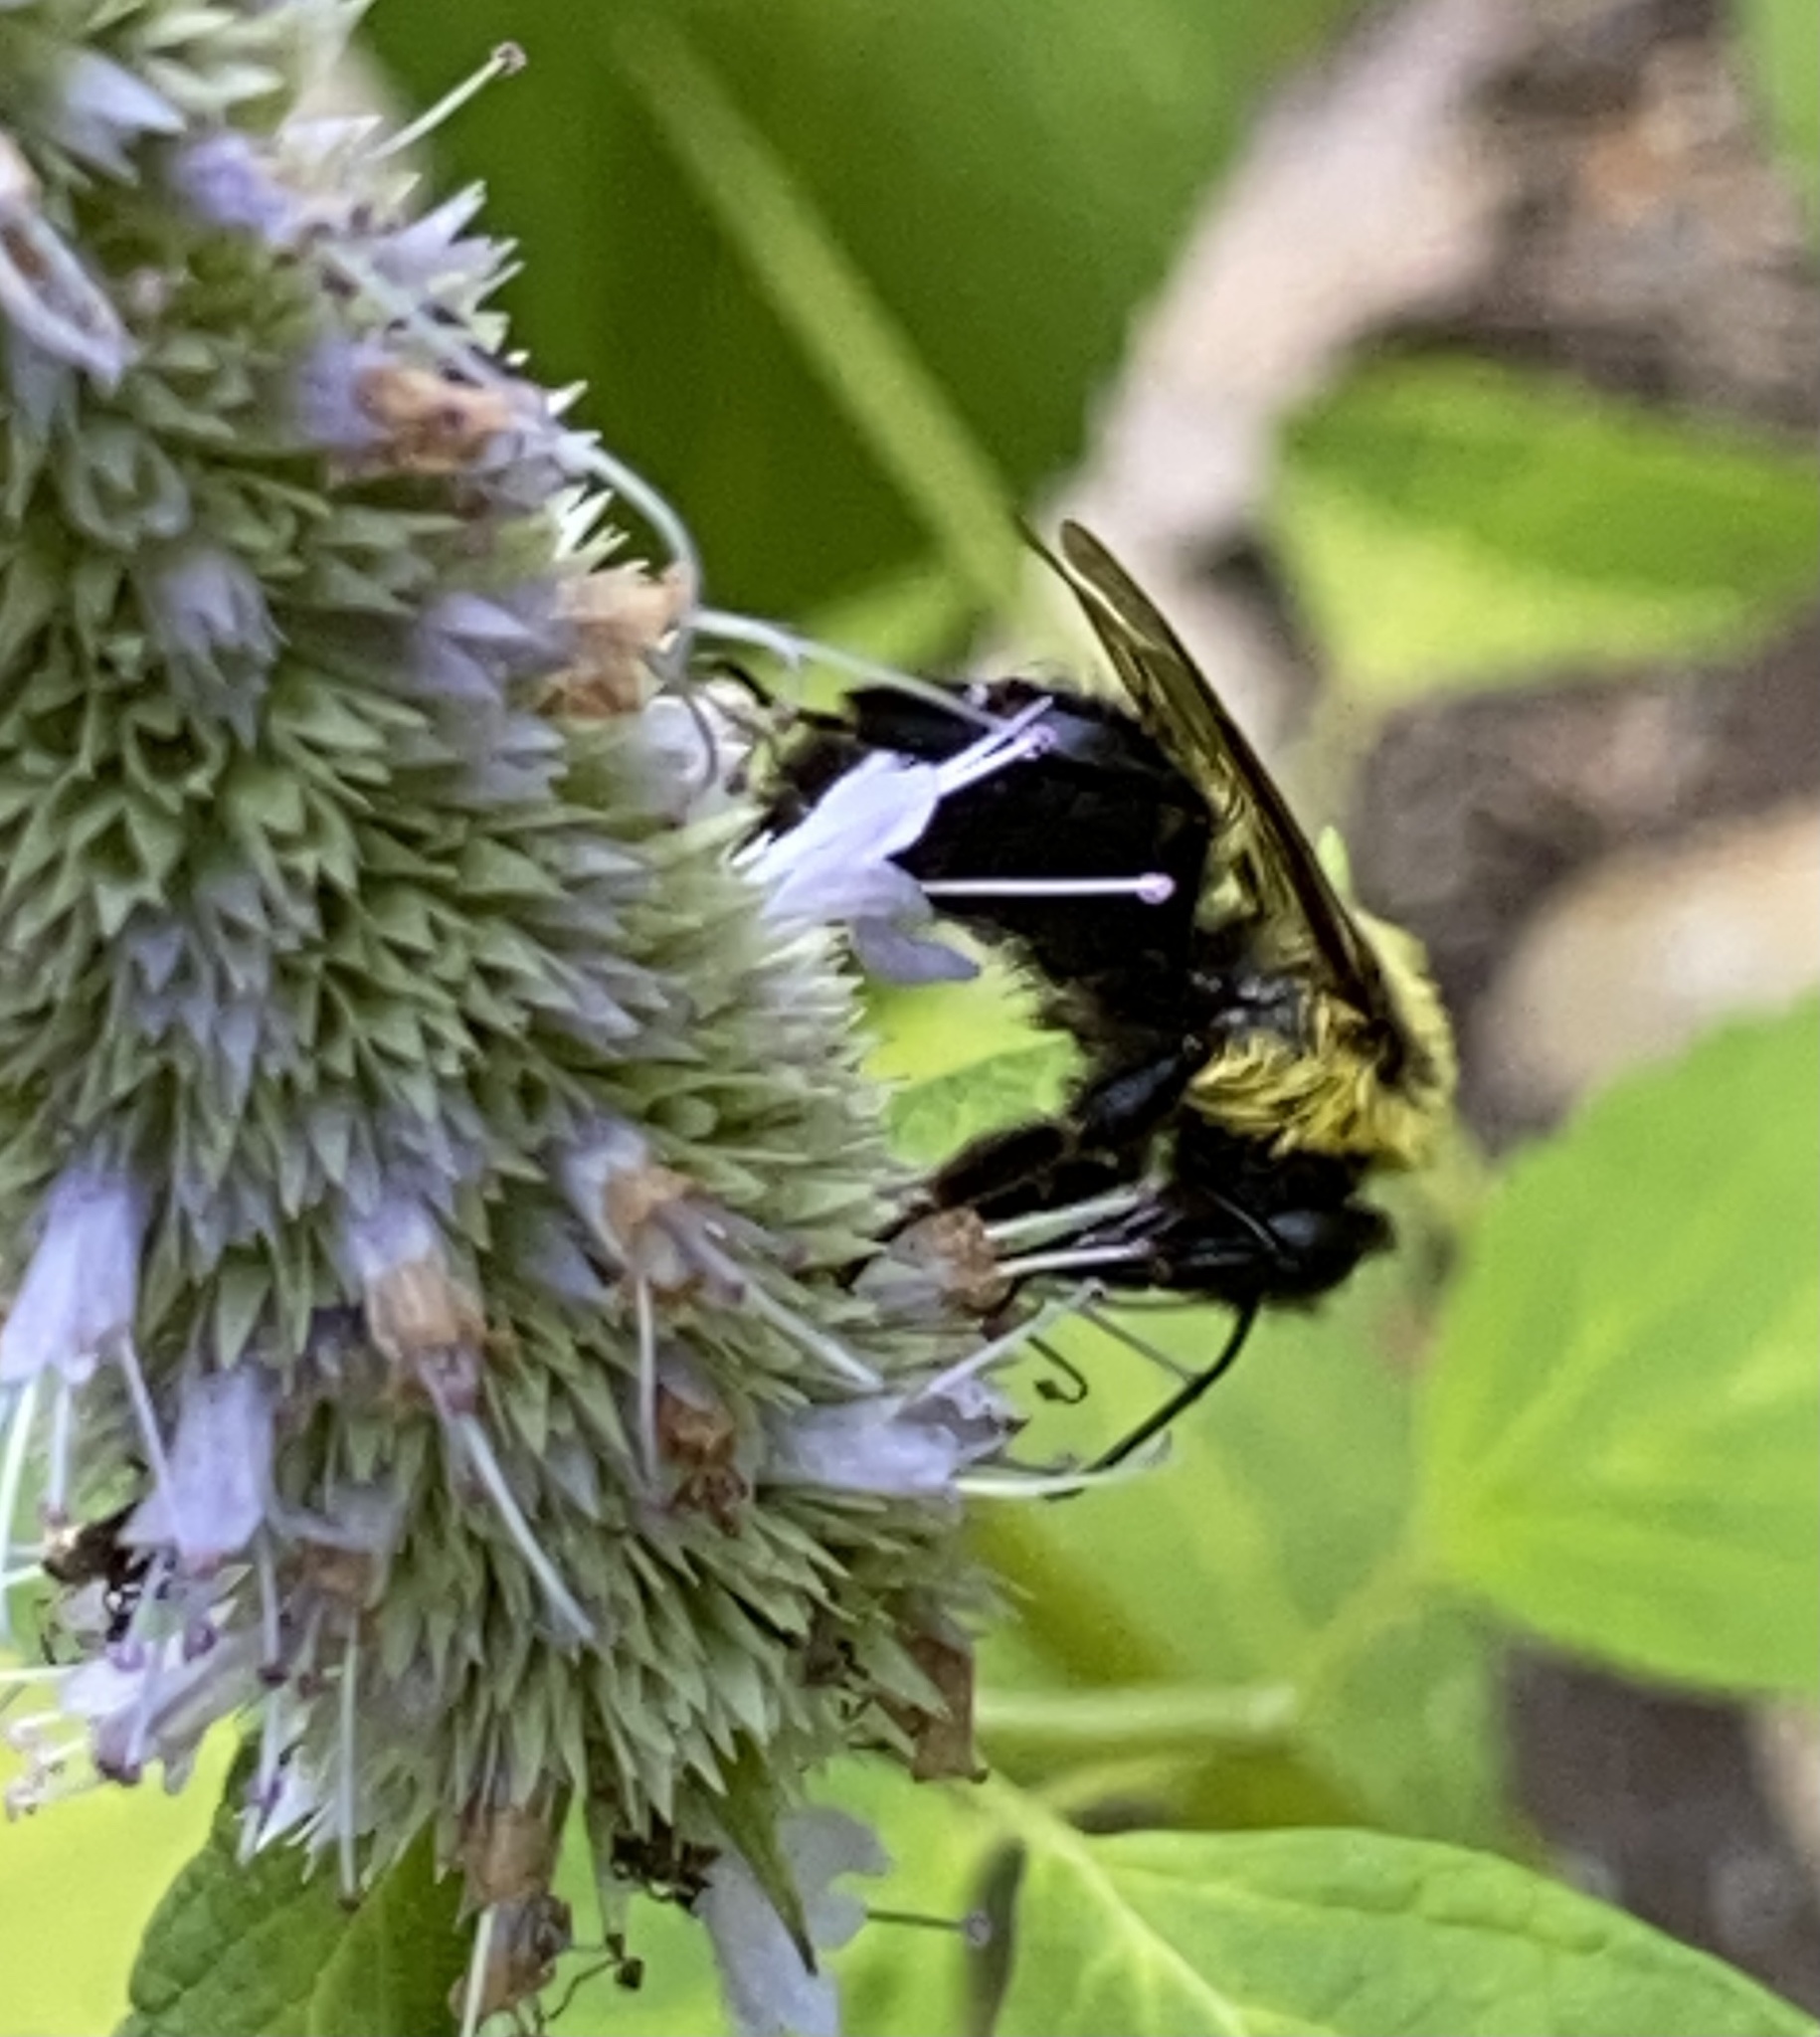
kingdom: Animalia
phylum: Arthropoda
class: Insecta
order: Hymenoptera
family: Apidae
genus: Bombus
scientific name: Bombus impatiens
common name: Common eastern bumble bee
